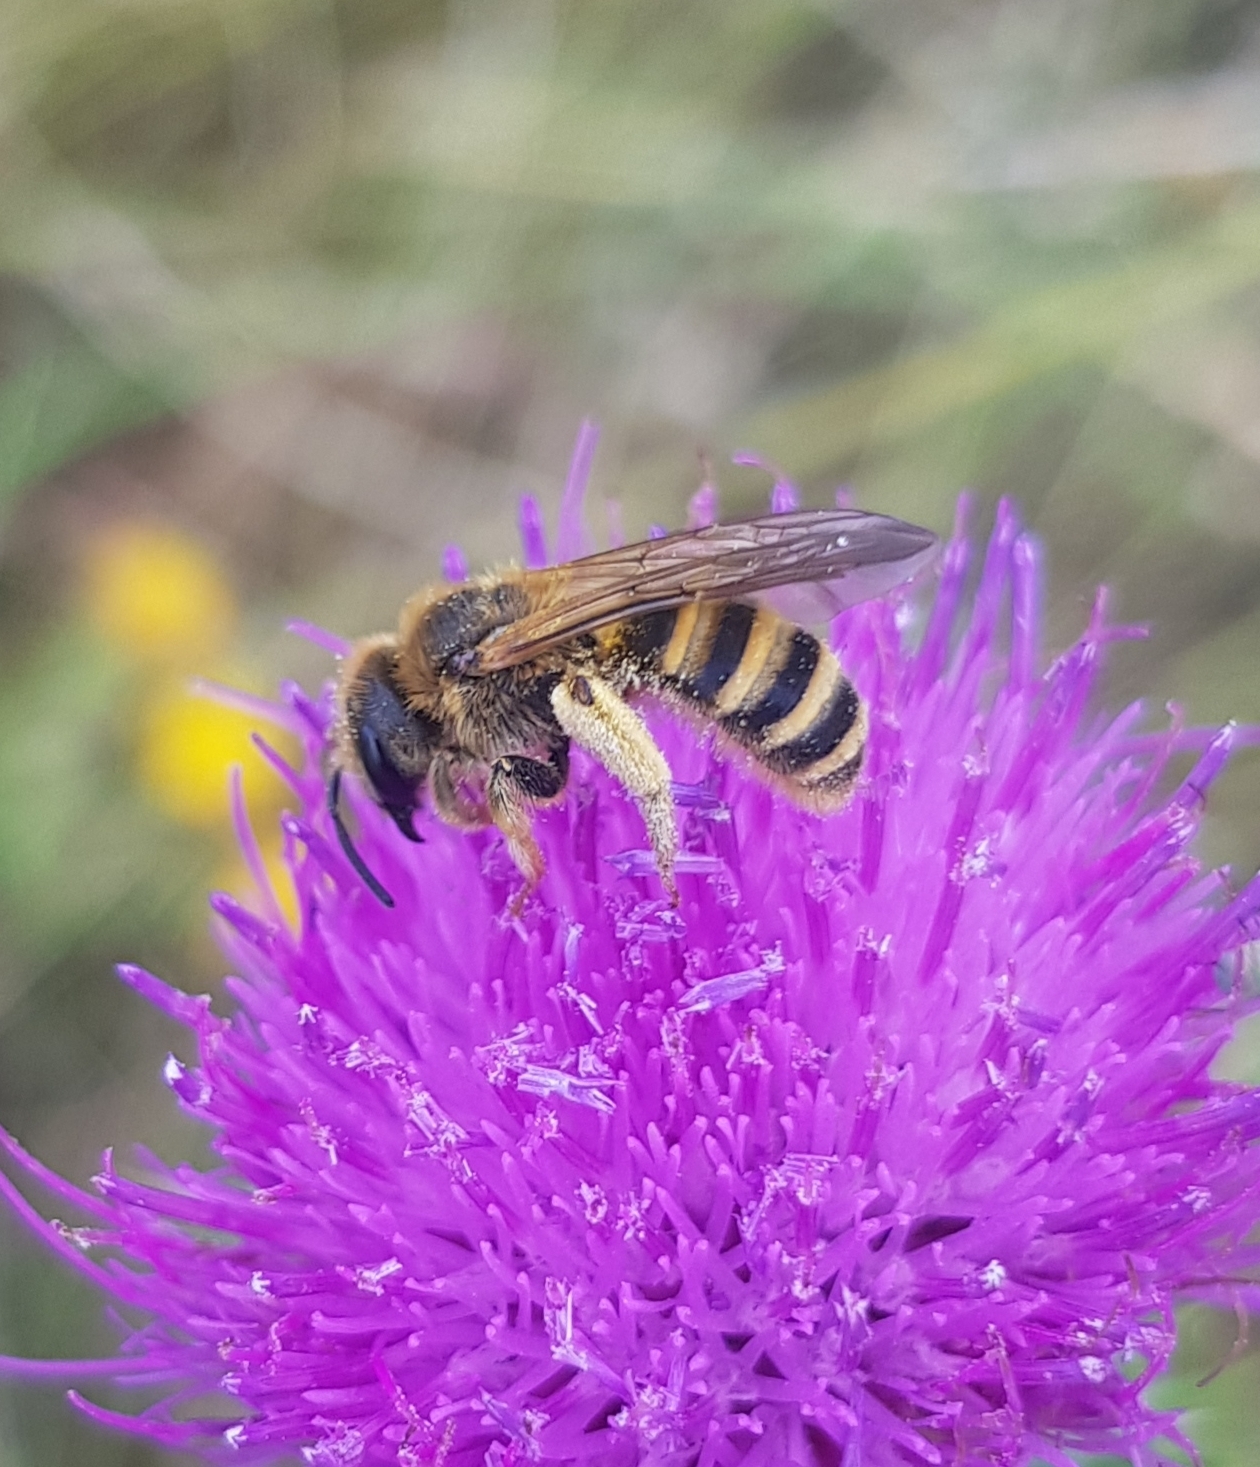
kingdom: Animalia
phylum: Arthropoda
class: Insecta
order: Hymenoptera
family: Halictidae
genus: Halictus
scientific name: Halictus scabiosae
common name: Great banded furrow bee
